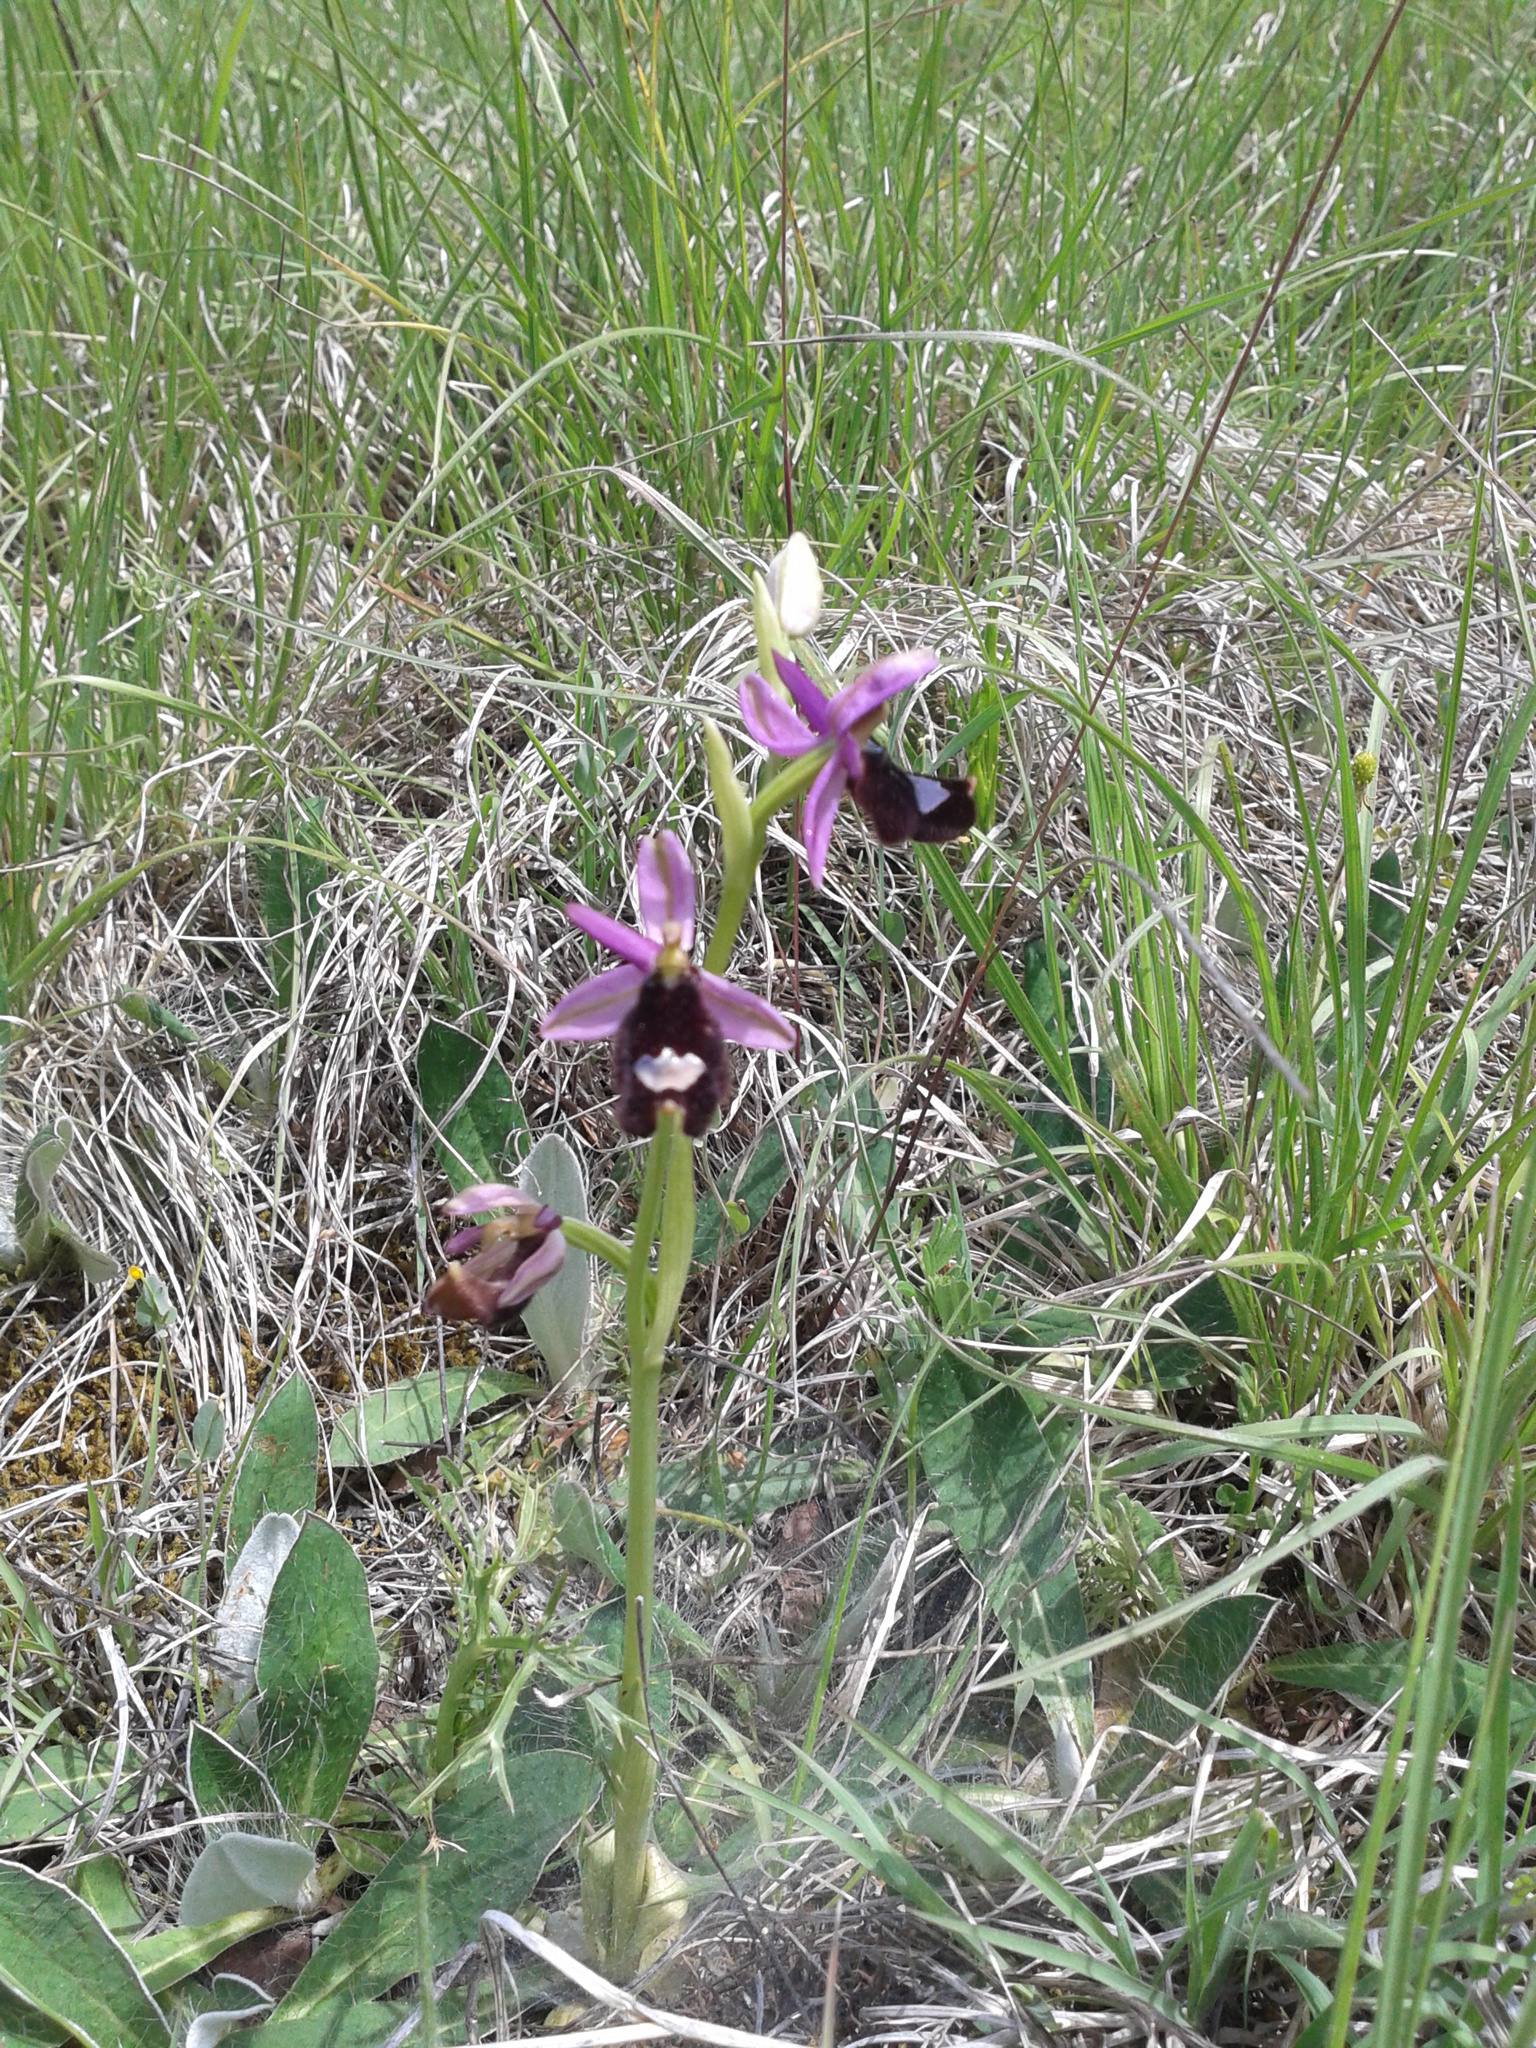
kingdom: Plantae
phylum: Tracheophyta
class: Liliopsida
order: Asparagales
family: Orchidaceae
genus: Ophrys
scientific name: Ophrys bertolonii
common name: Bertoloni's bee orchid
